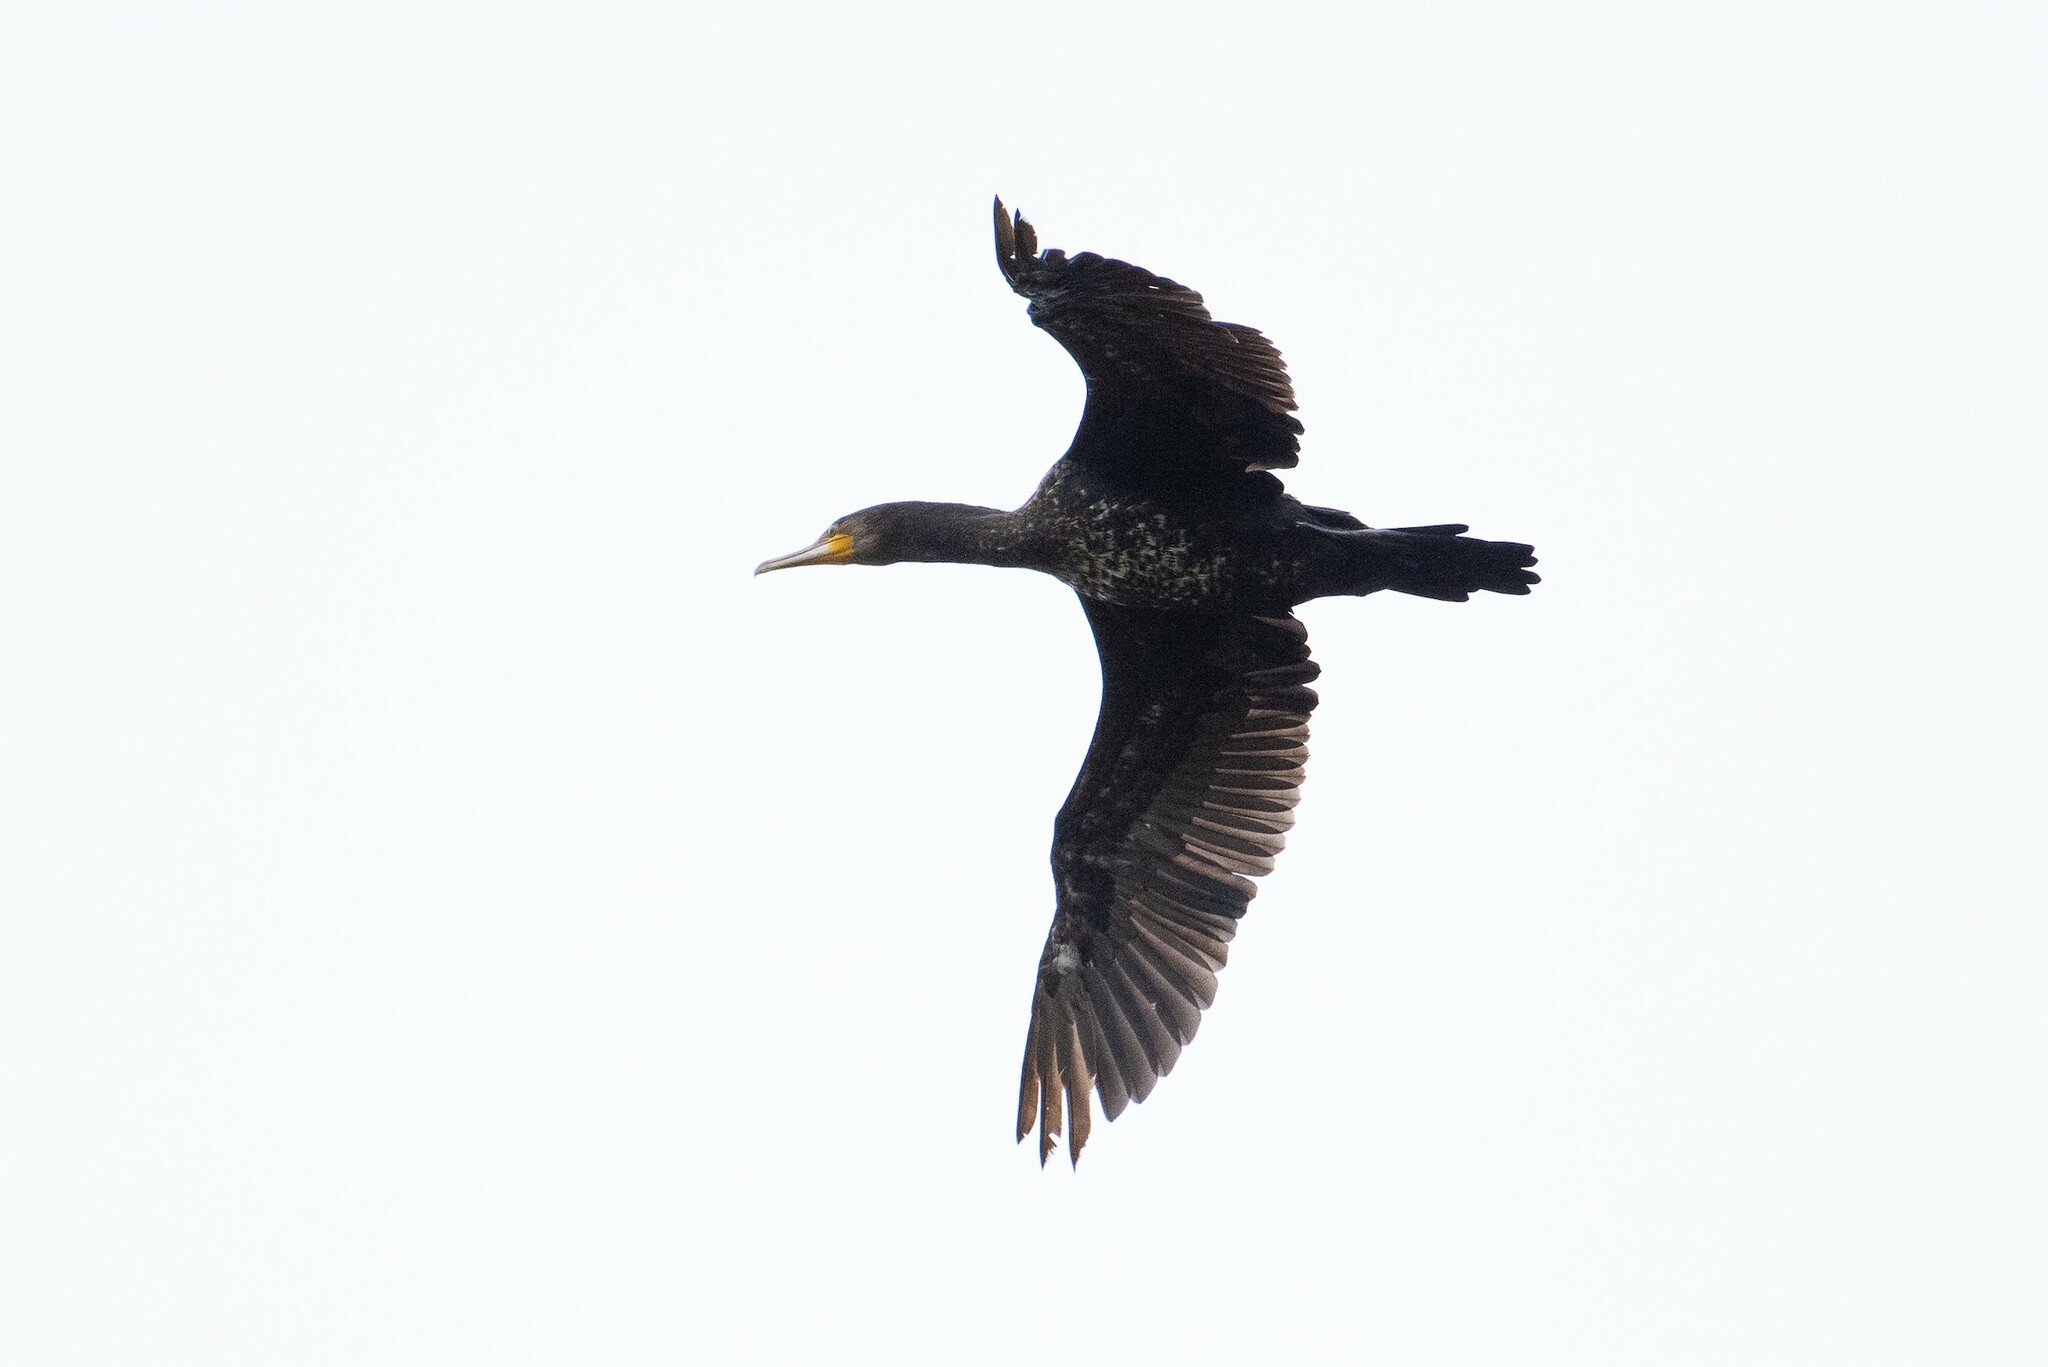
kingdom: Animalia
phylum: Chordata
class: Aves
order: Suliformes
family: Phalacrocoracidae
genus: Phalacrocorax
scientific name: Phalacrocorax carbo
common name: Great cormorant
